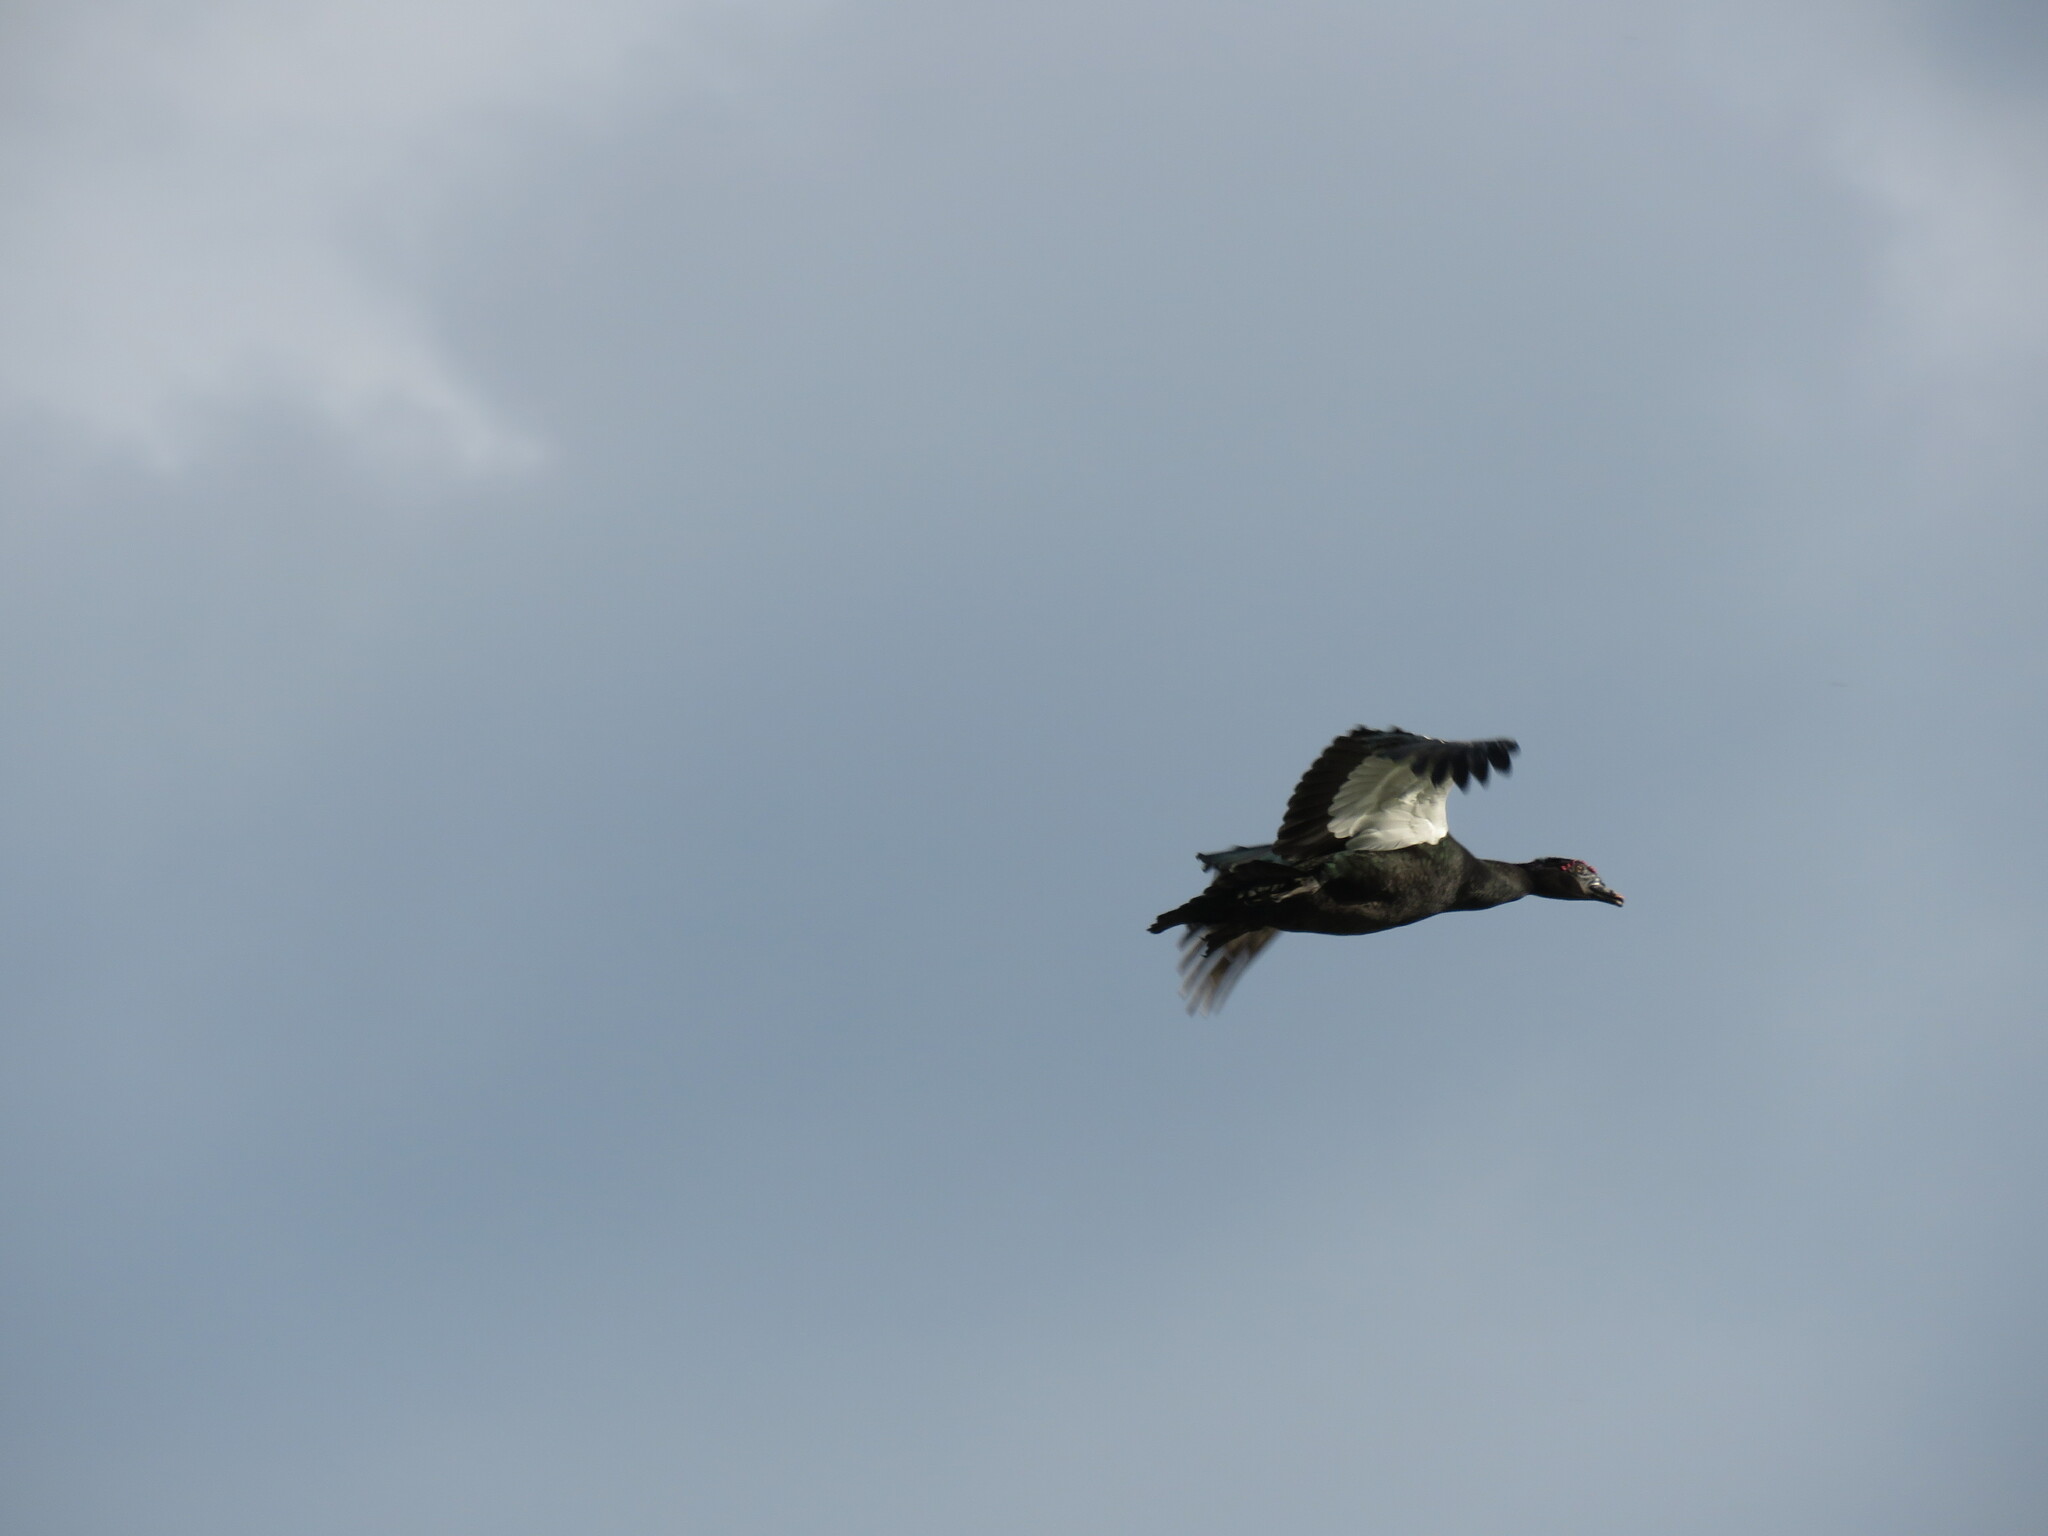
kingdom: Animalia
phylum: Chordata
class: Aves
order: Anseriformes
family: Anatidae
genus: Cairina
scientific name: Cairina moschata
